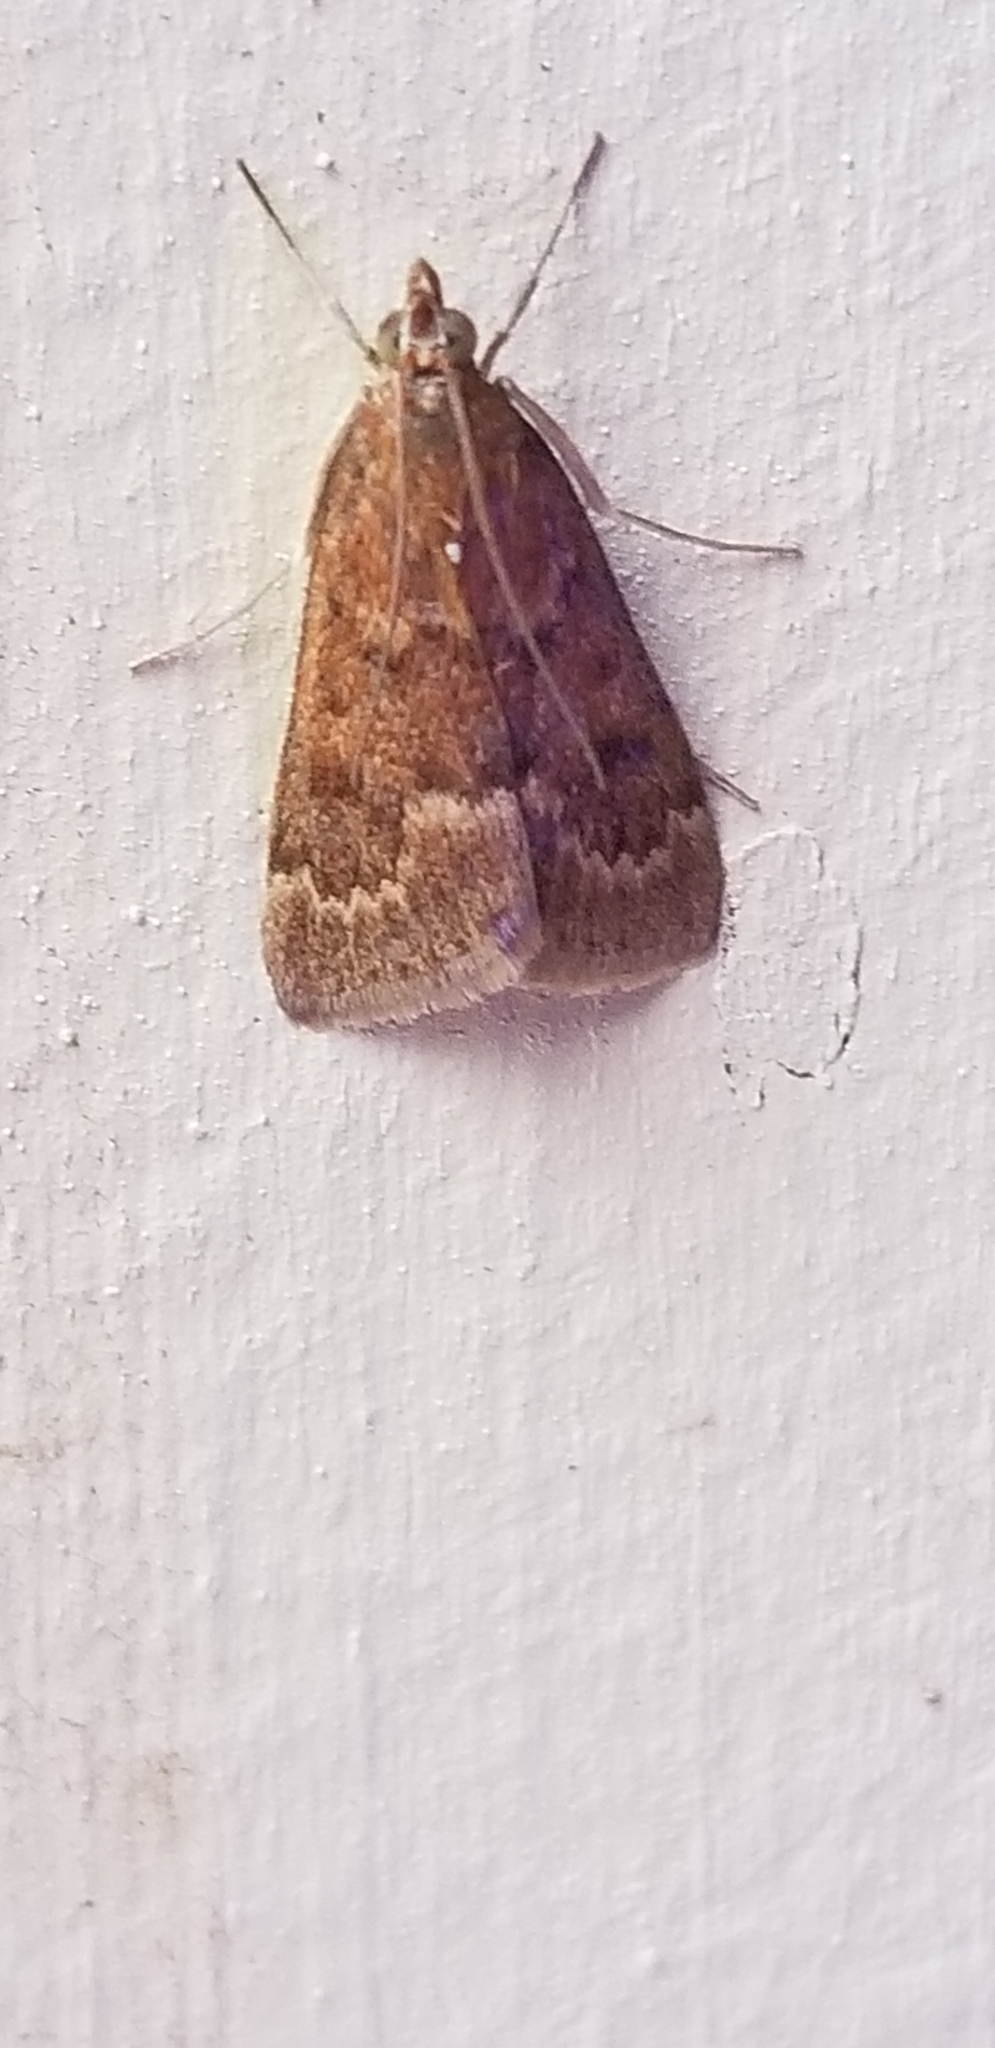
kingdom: Animalia
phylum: Arthropoda
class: Insecta
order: Lepidoptera
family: Crambidae
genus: Achyra
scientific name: Achyra rantalis
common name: Garden webworm
